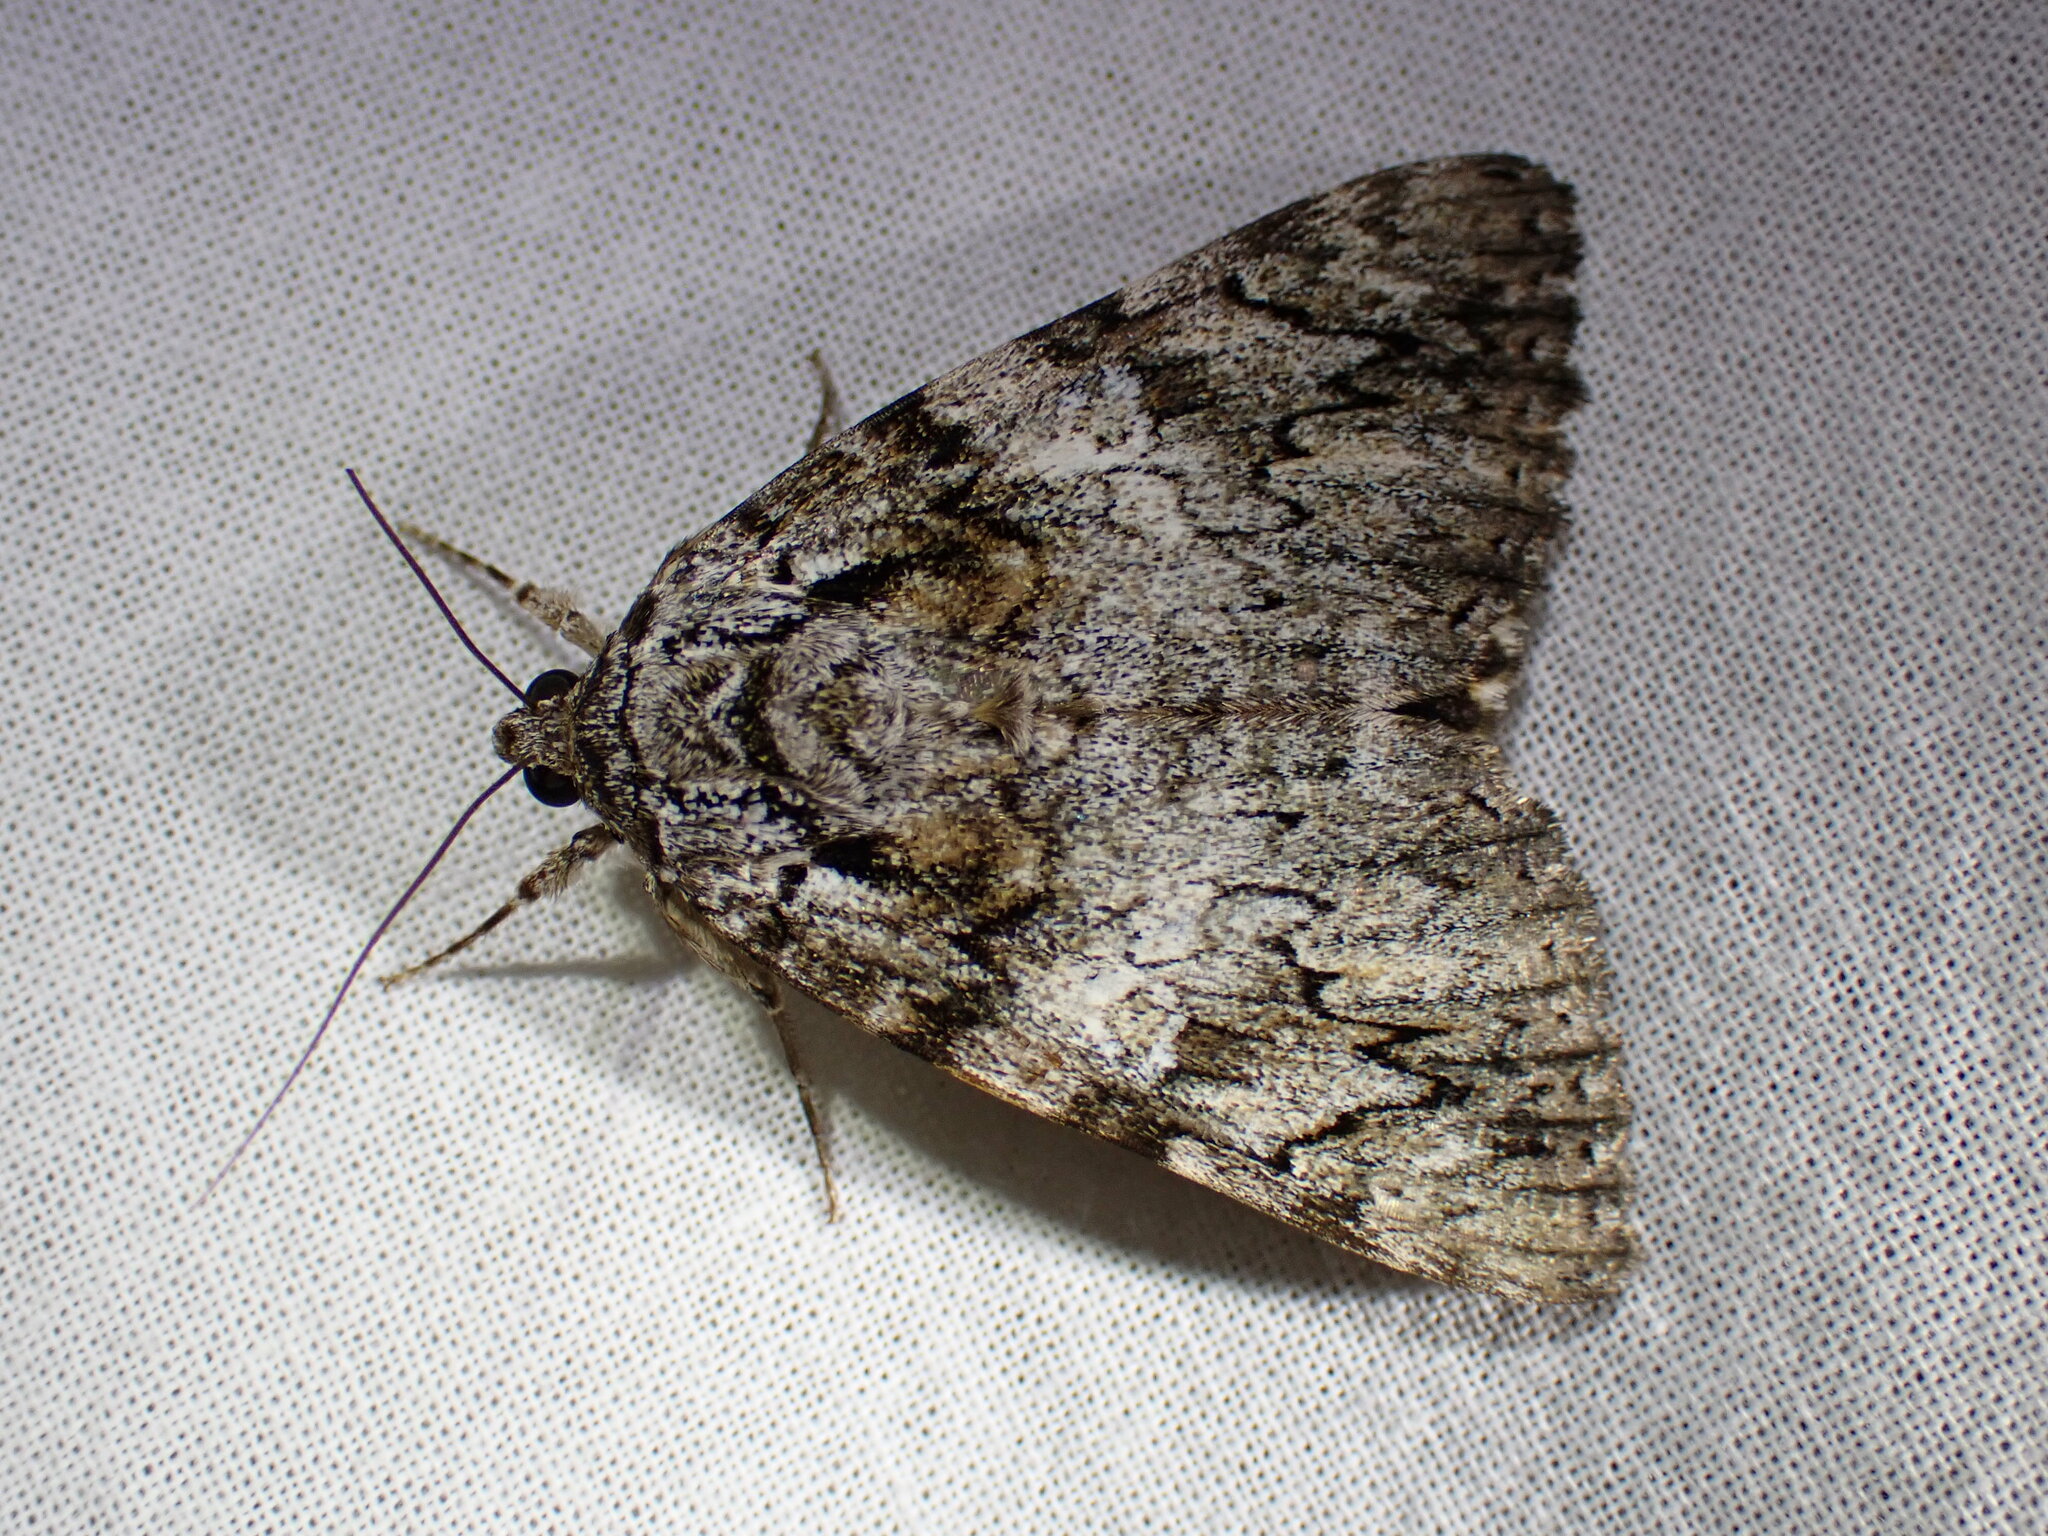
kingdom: Animalia
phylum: Arthropoda
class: Insecta
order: Lepidoptera
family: Erebidae
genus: Catocala
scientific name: Catocala ilia
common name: Ilia underwing
